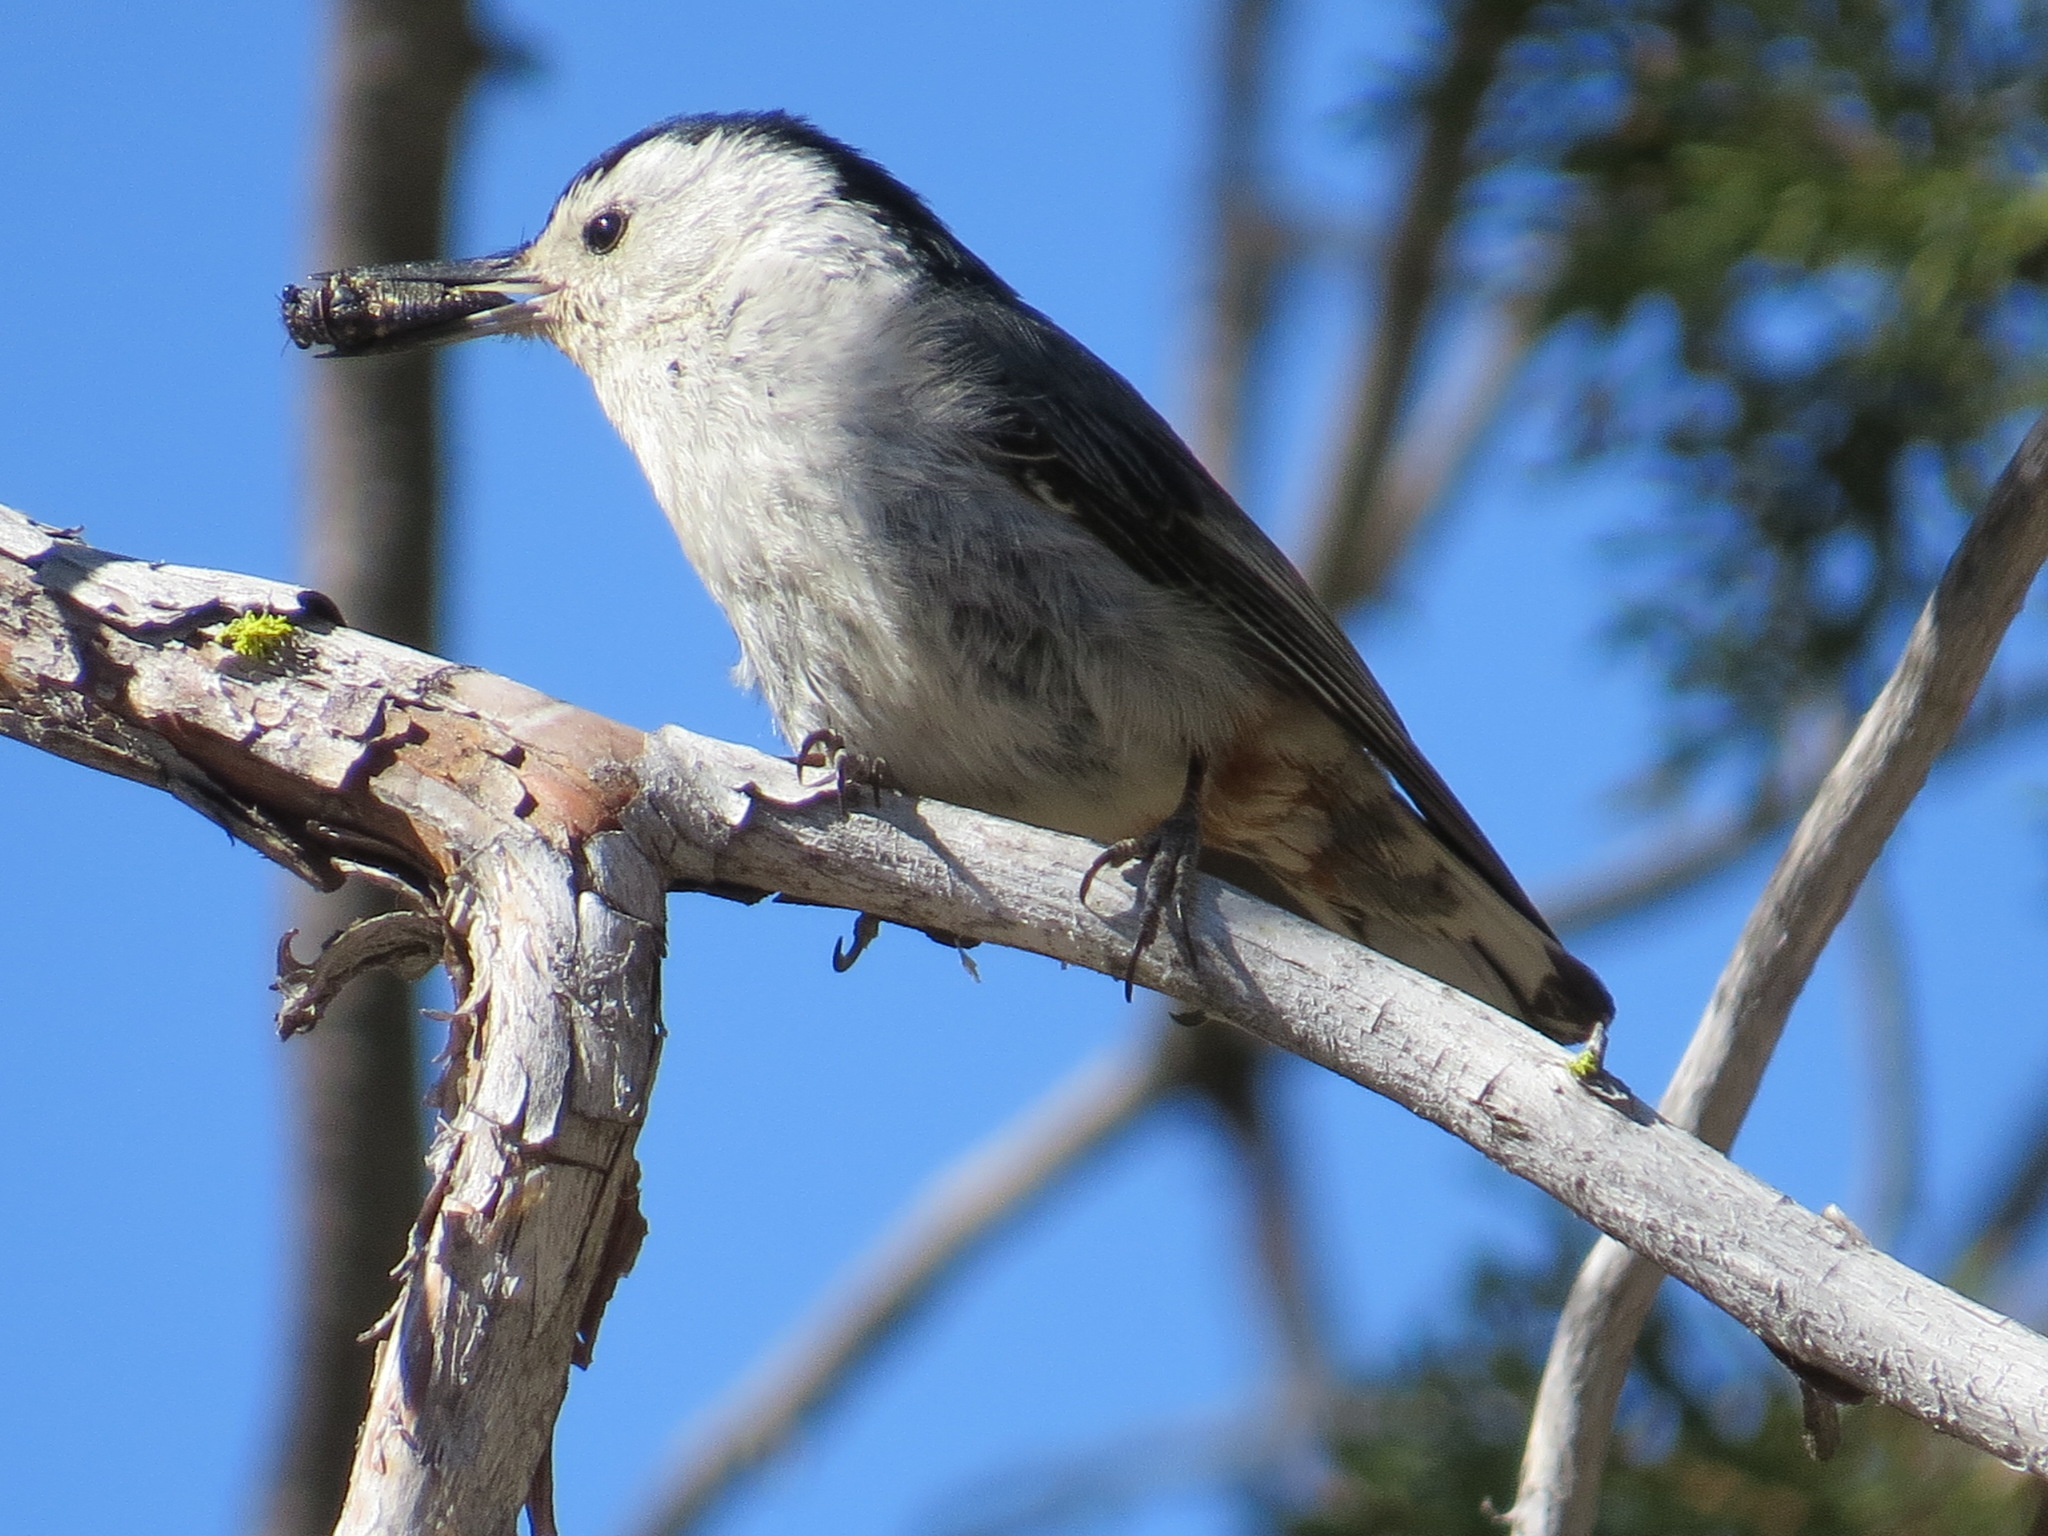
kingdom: Animalia
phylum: Chordata
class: Aves
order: Passeriformes
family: Sittidae
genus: Sitta
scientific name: Sitta carolinensis
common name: White-breasted nuthatch
